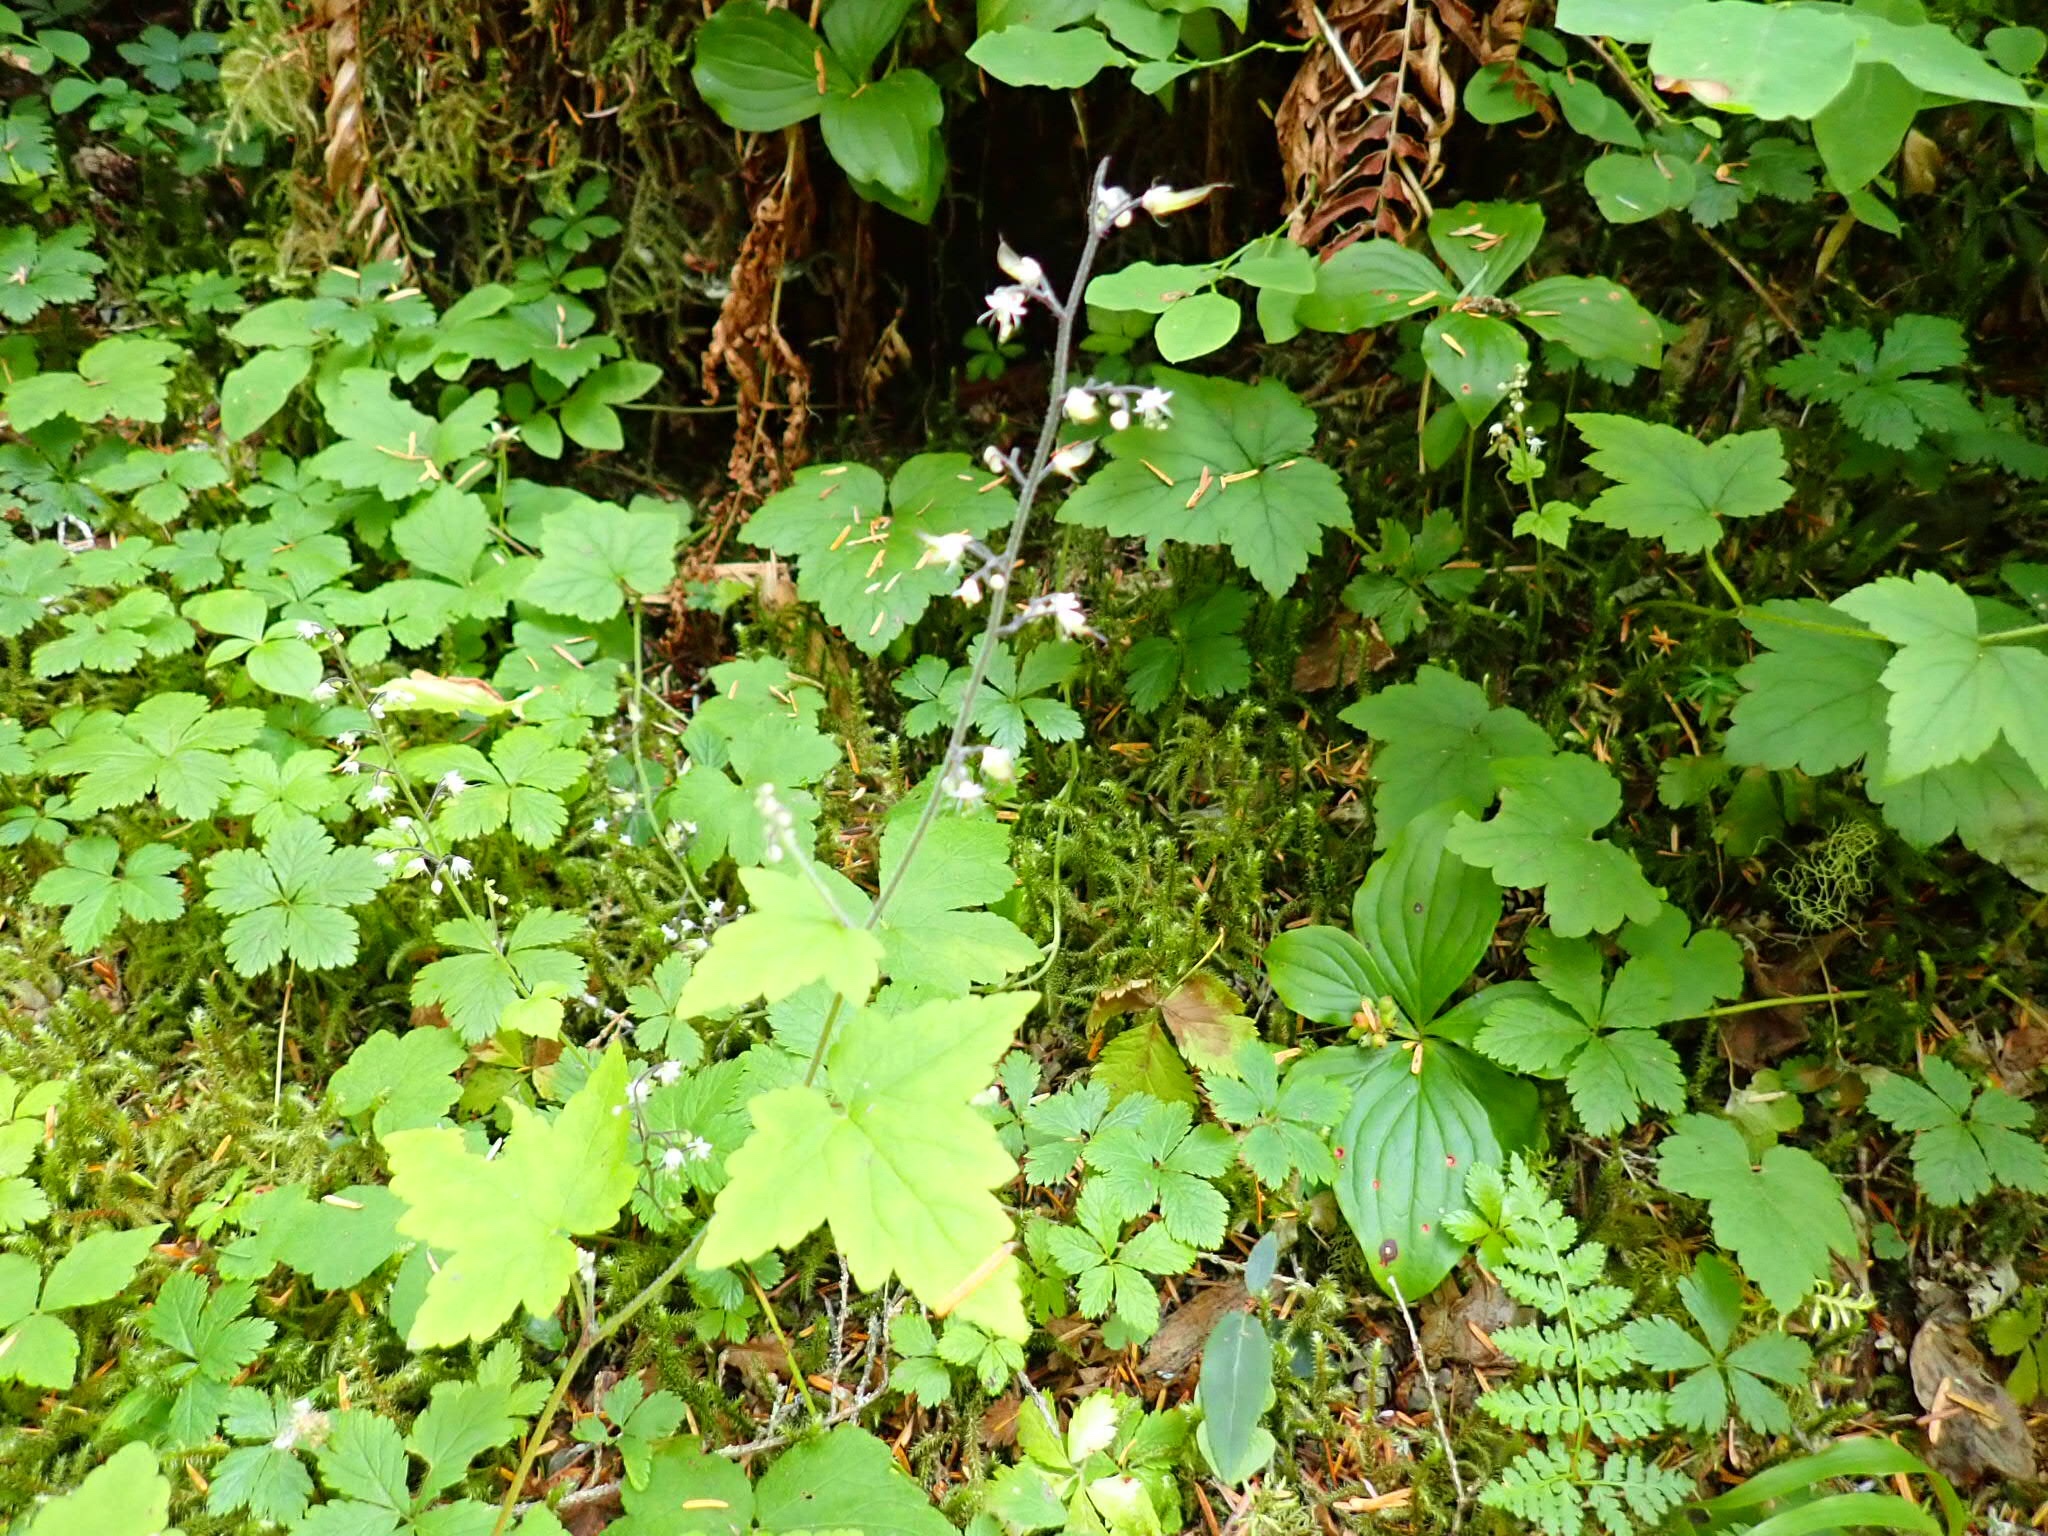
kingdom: Plantae
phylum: Tracheophyta
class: Magnoliopsida
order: Saxifragales
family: Saxifragaceae
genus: Tiarella
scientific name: Tiarella trifoliata
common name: Sugar-scoop
